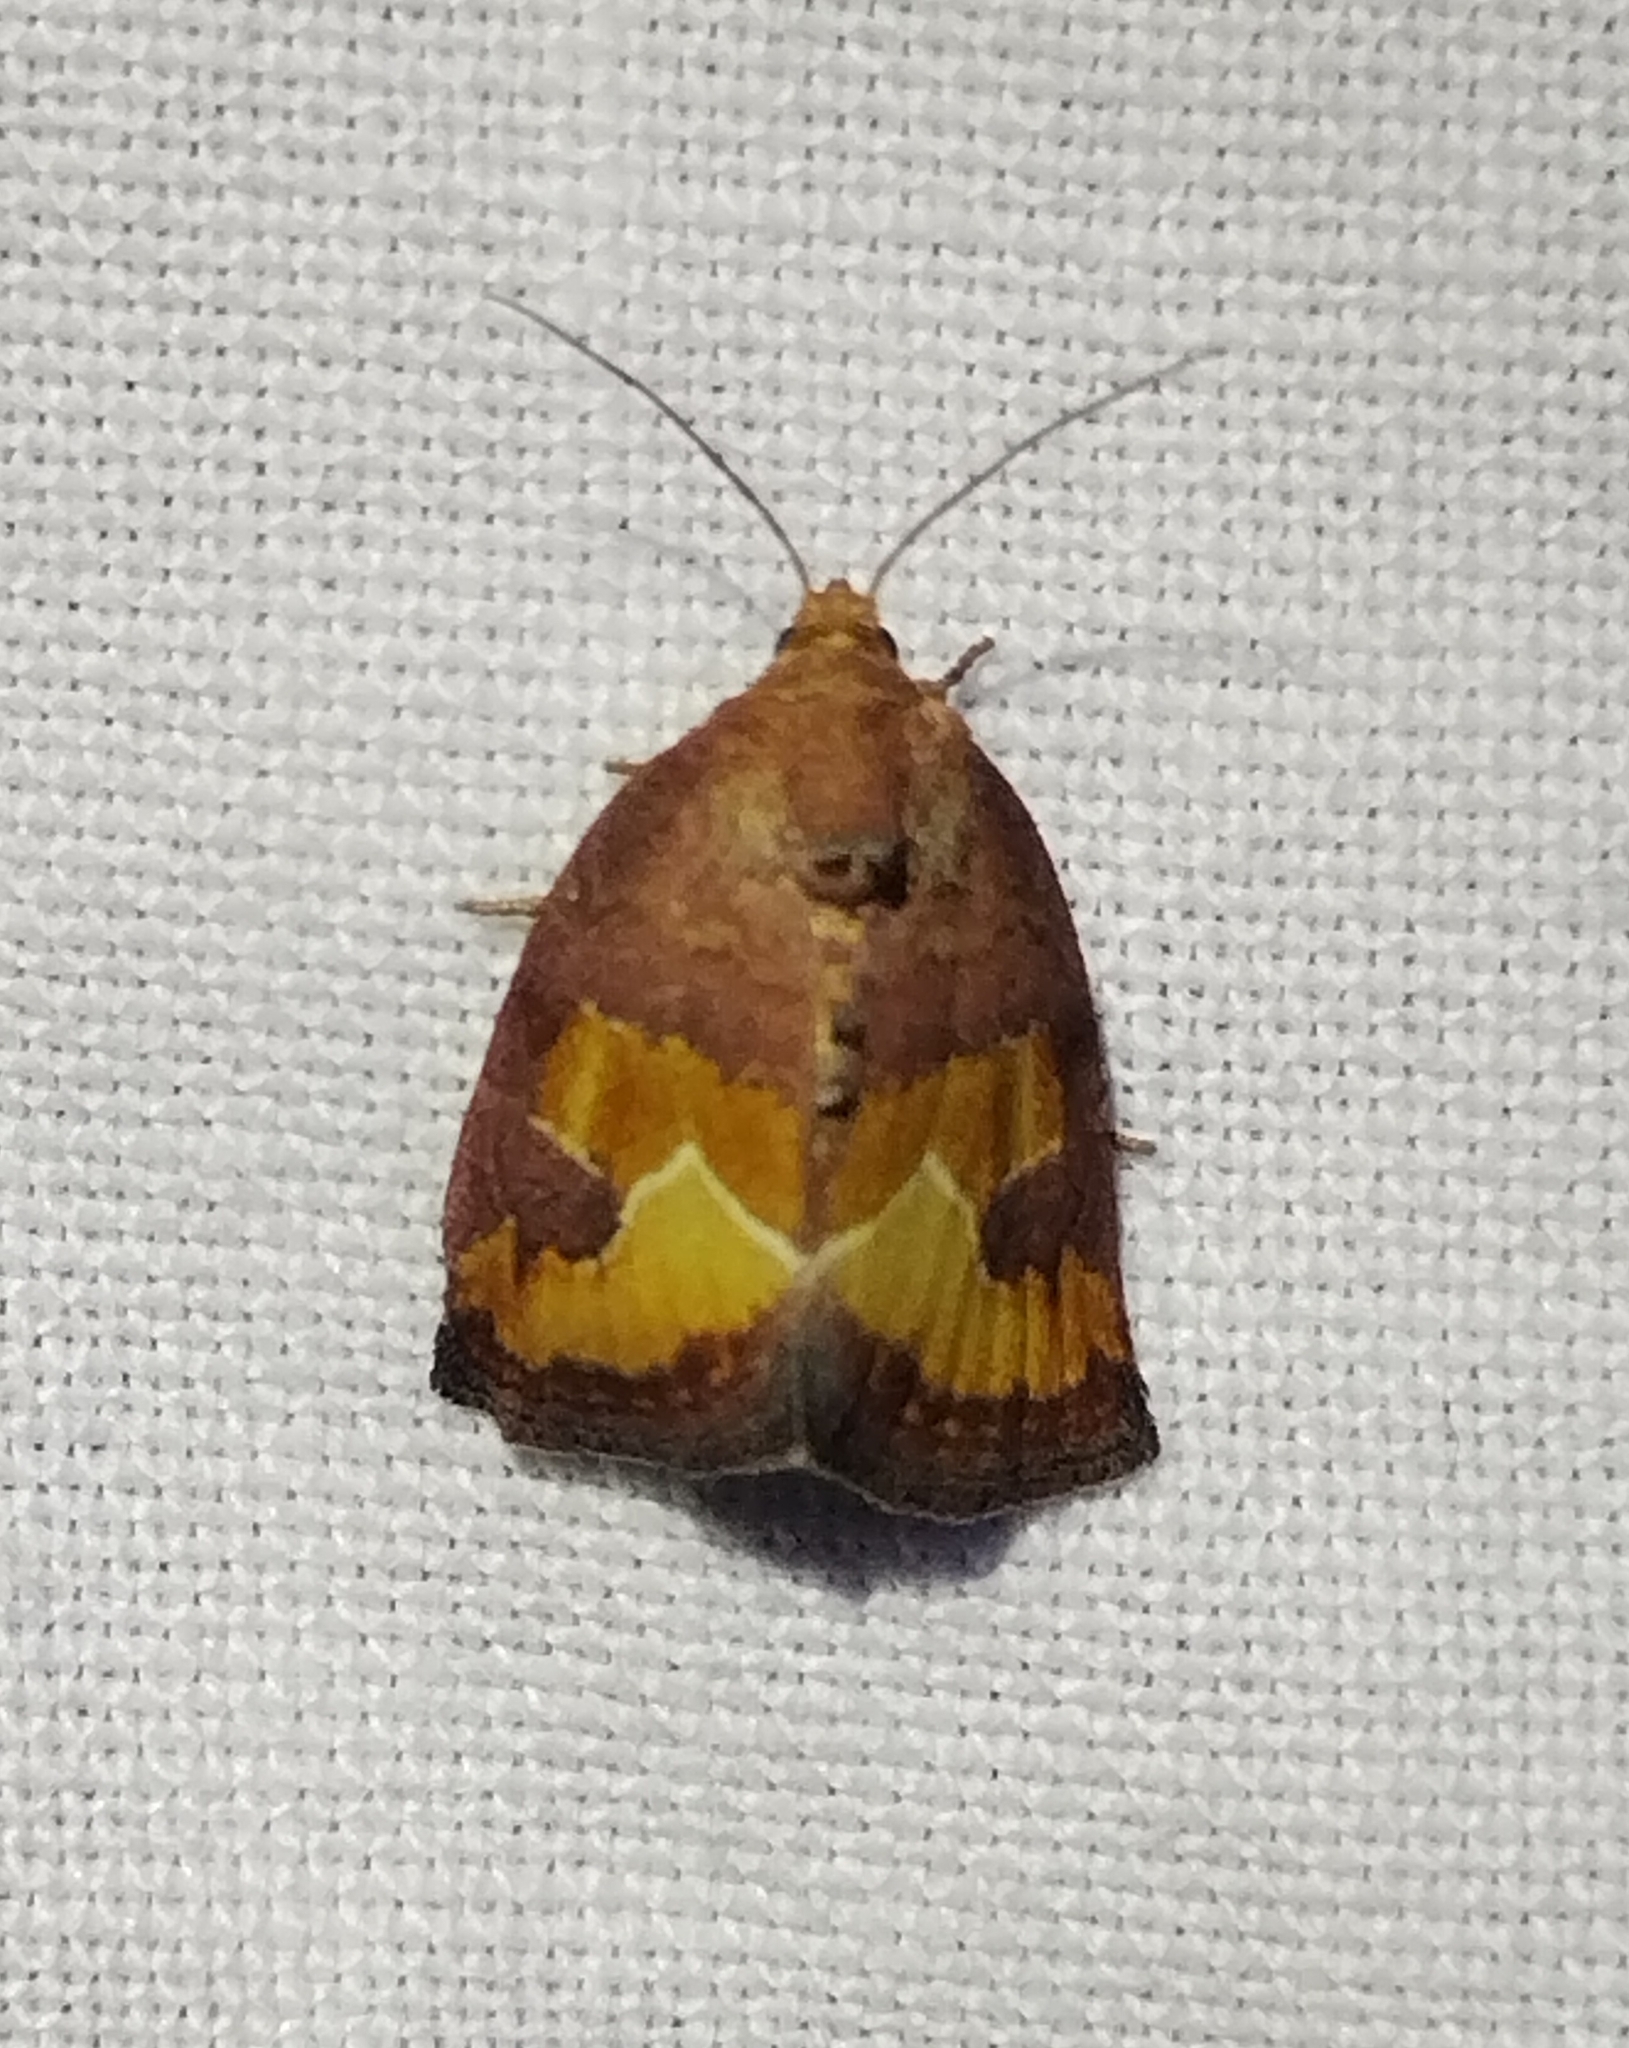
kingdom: Animalia
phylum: Arthropoda
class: Insecta
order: Lepidoptera
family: Noctuidae
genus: Deltote
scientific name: Deltote bellicula
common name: Bog glyph
